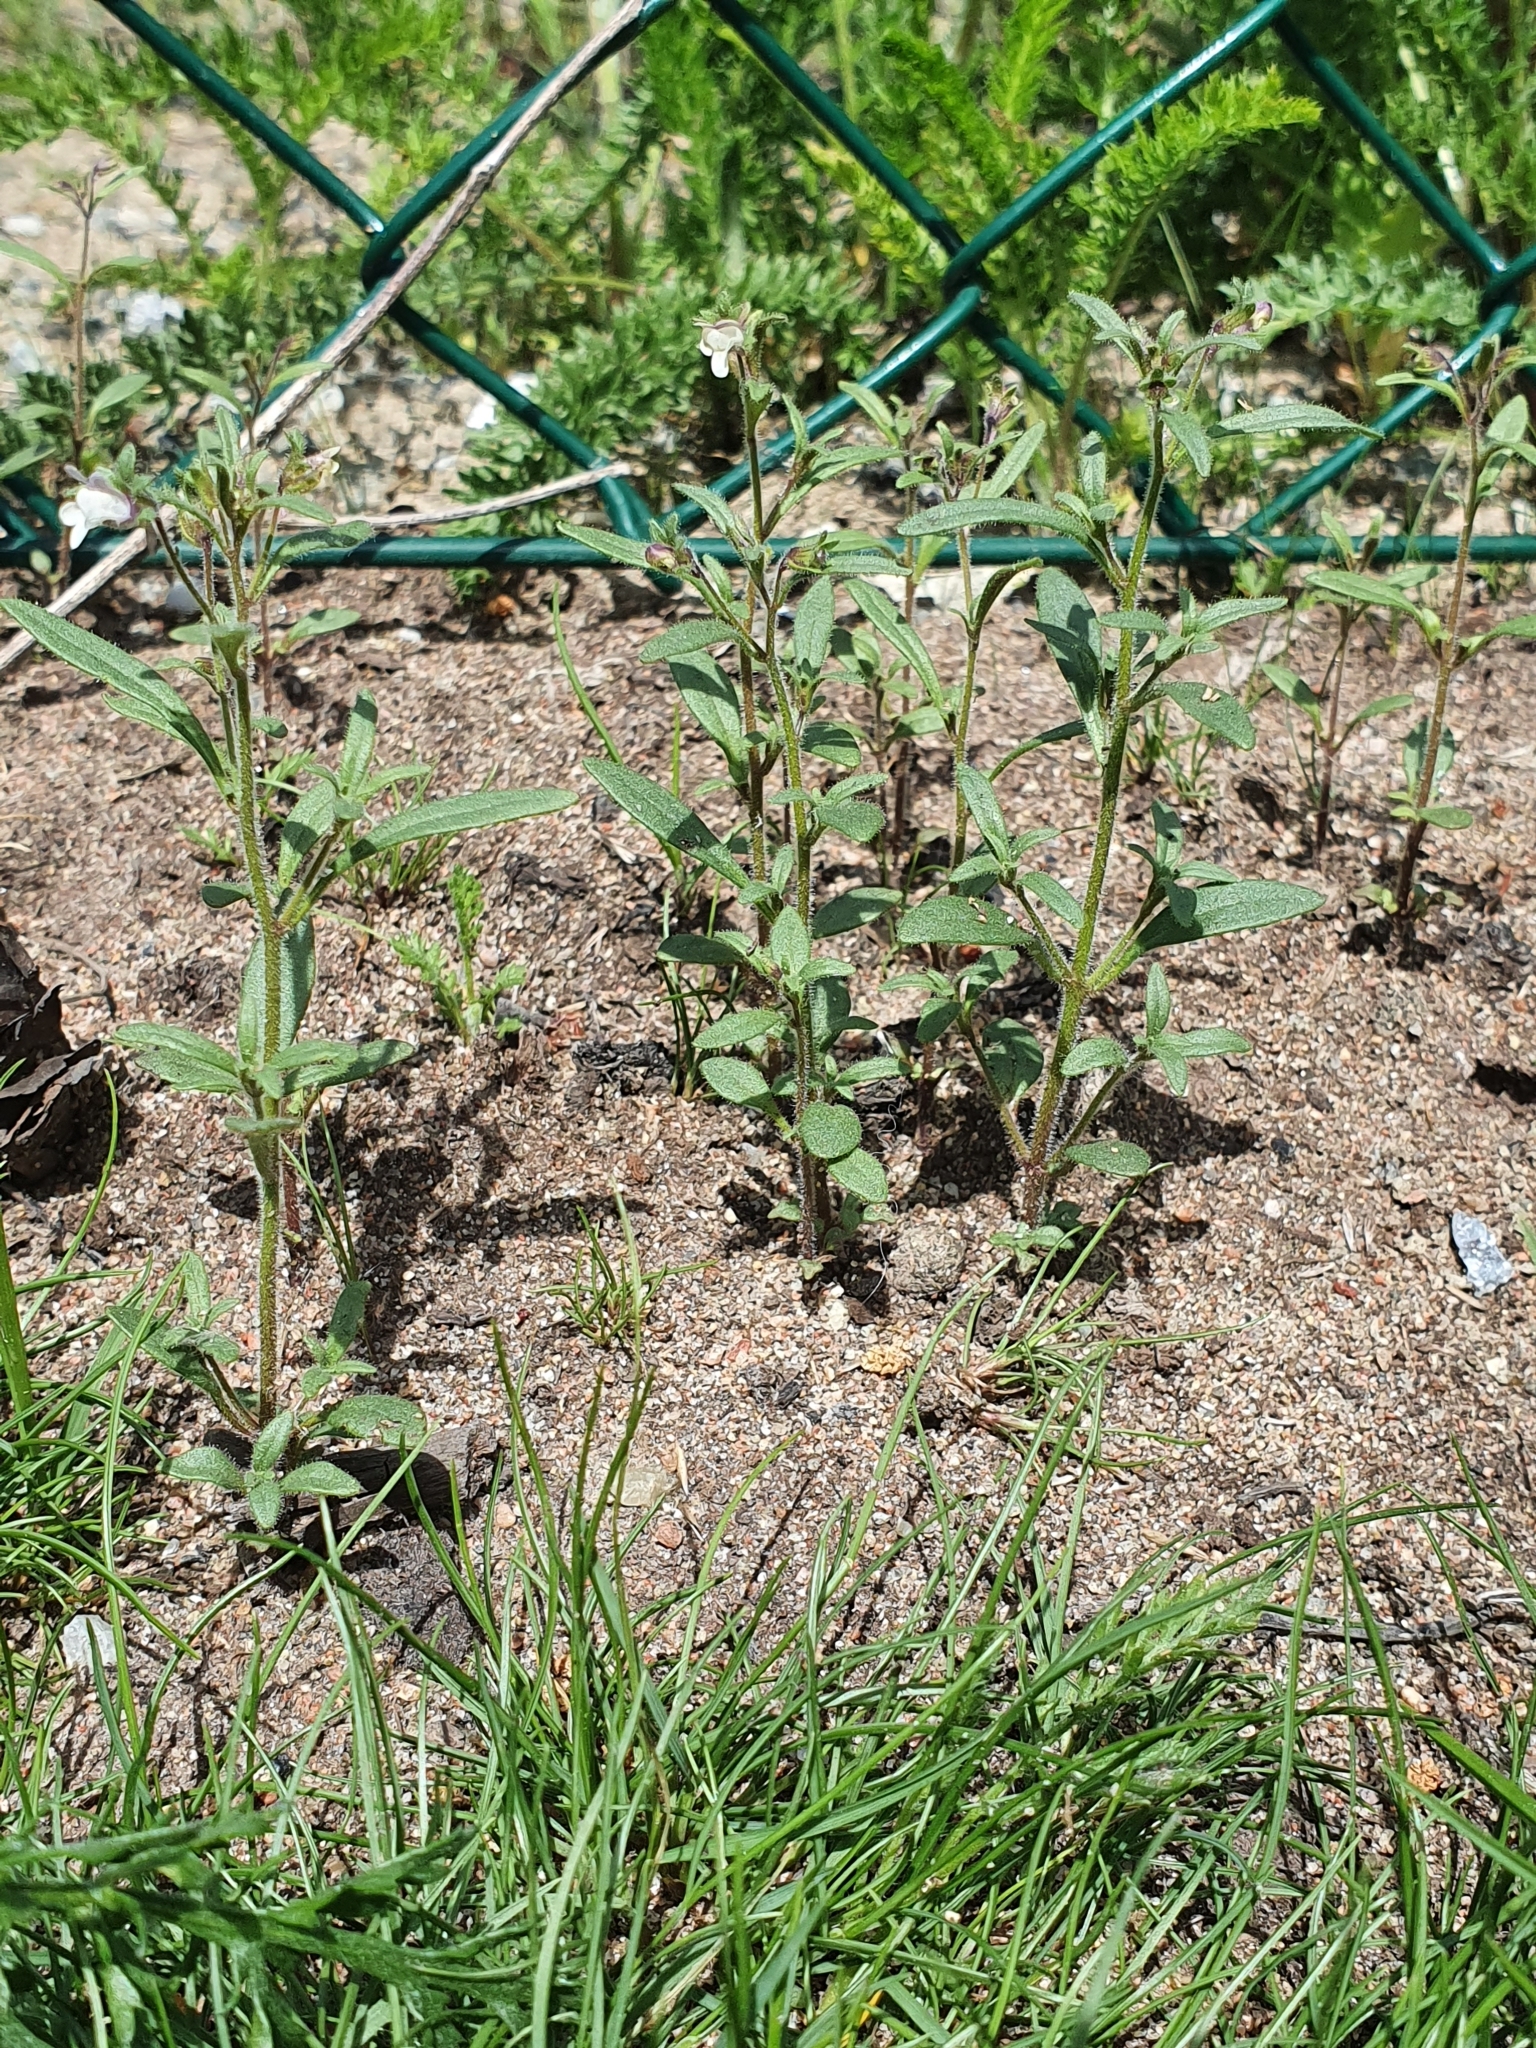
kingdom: Plantae
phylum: Tracheophyta
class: Magnoliopsida
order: Lamiales
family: Plantaginaceae
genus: Chaenorhinum
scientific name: Chaenorhinum minus
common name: Dwarf snapdragon
